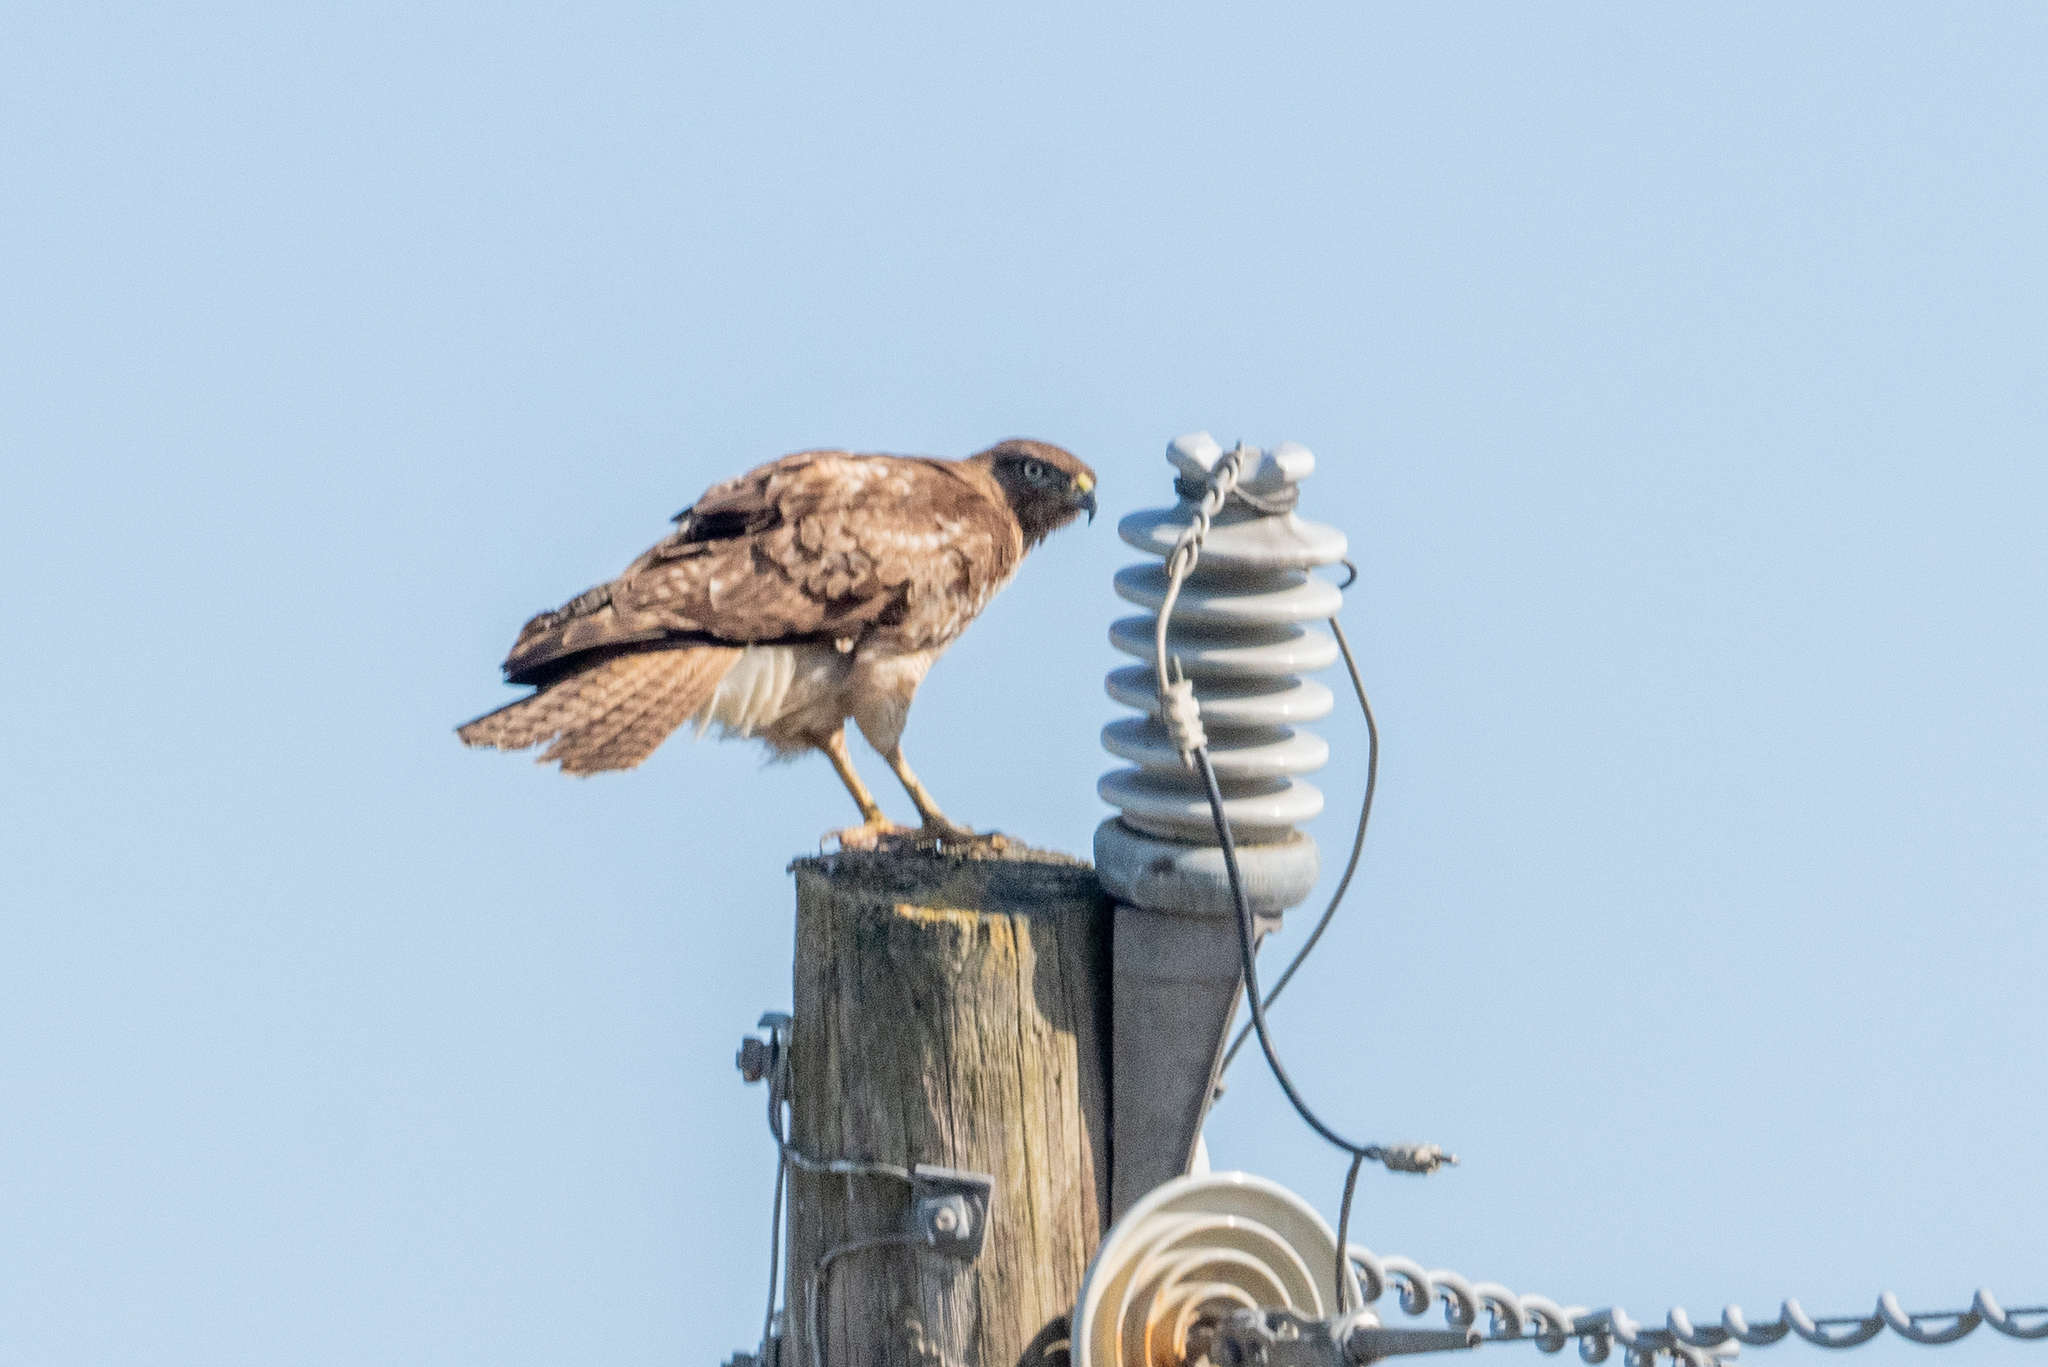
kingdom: Animalia
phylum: Chordata
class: Aves
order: Accipitriformes
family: Accipitridae
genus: Buteo
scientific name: Buteo jamaicensis
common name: Red-tailed hawk
